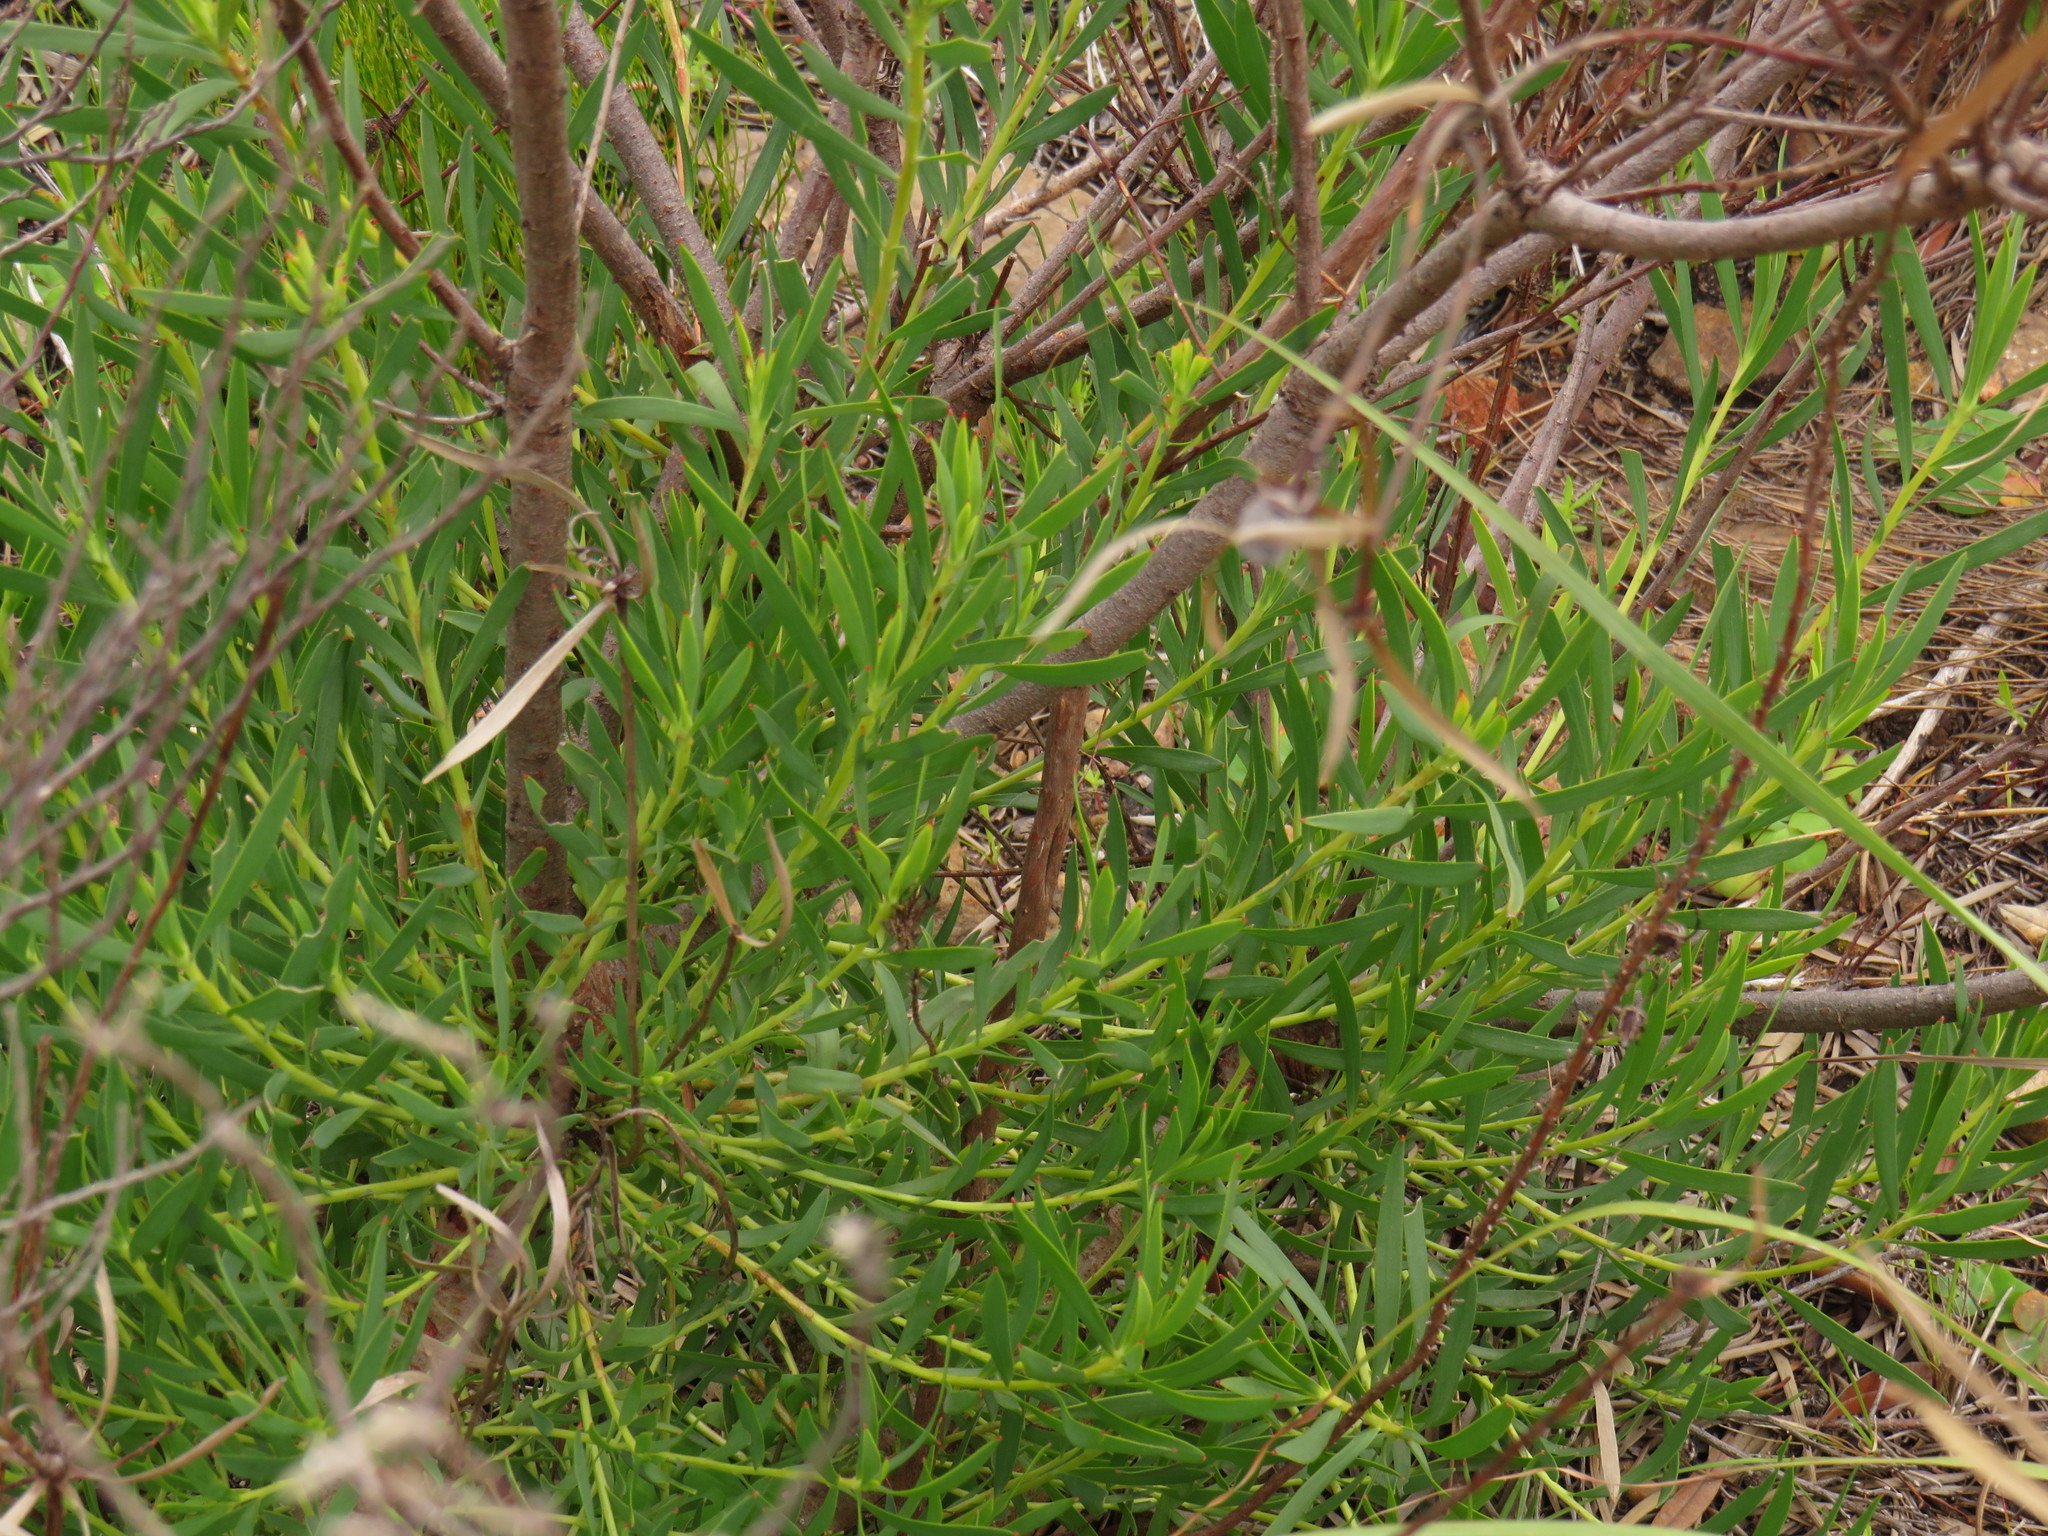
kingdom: Plantae
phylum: Tracheophyta
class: Magnoliopsida
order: Proteales
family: Proteaceae
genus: Leucadendron
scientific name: Leucadendron salignum
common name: Common sunshine conebush
